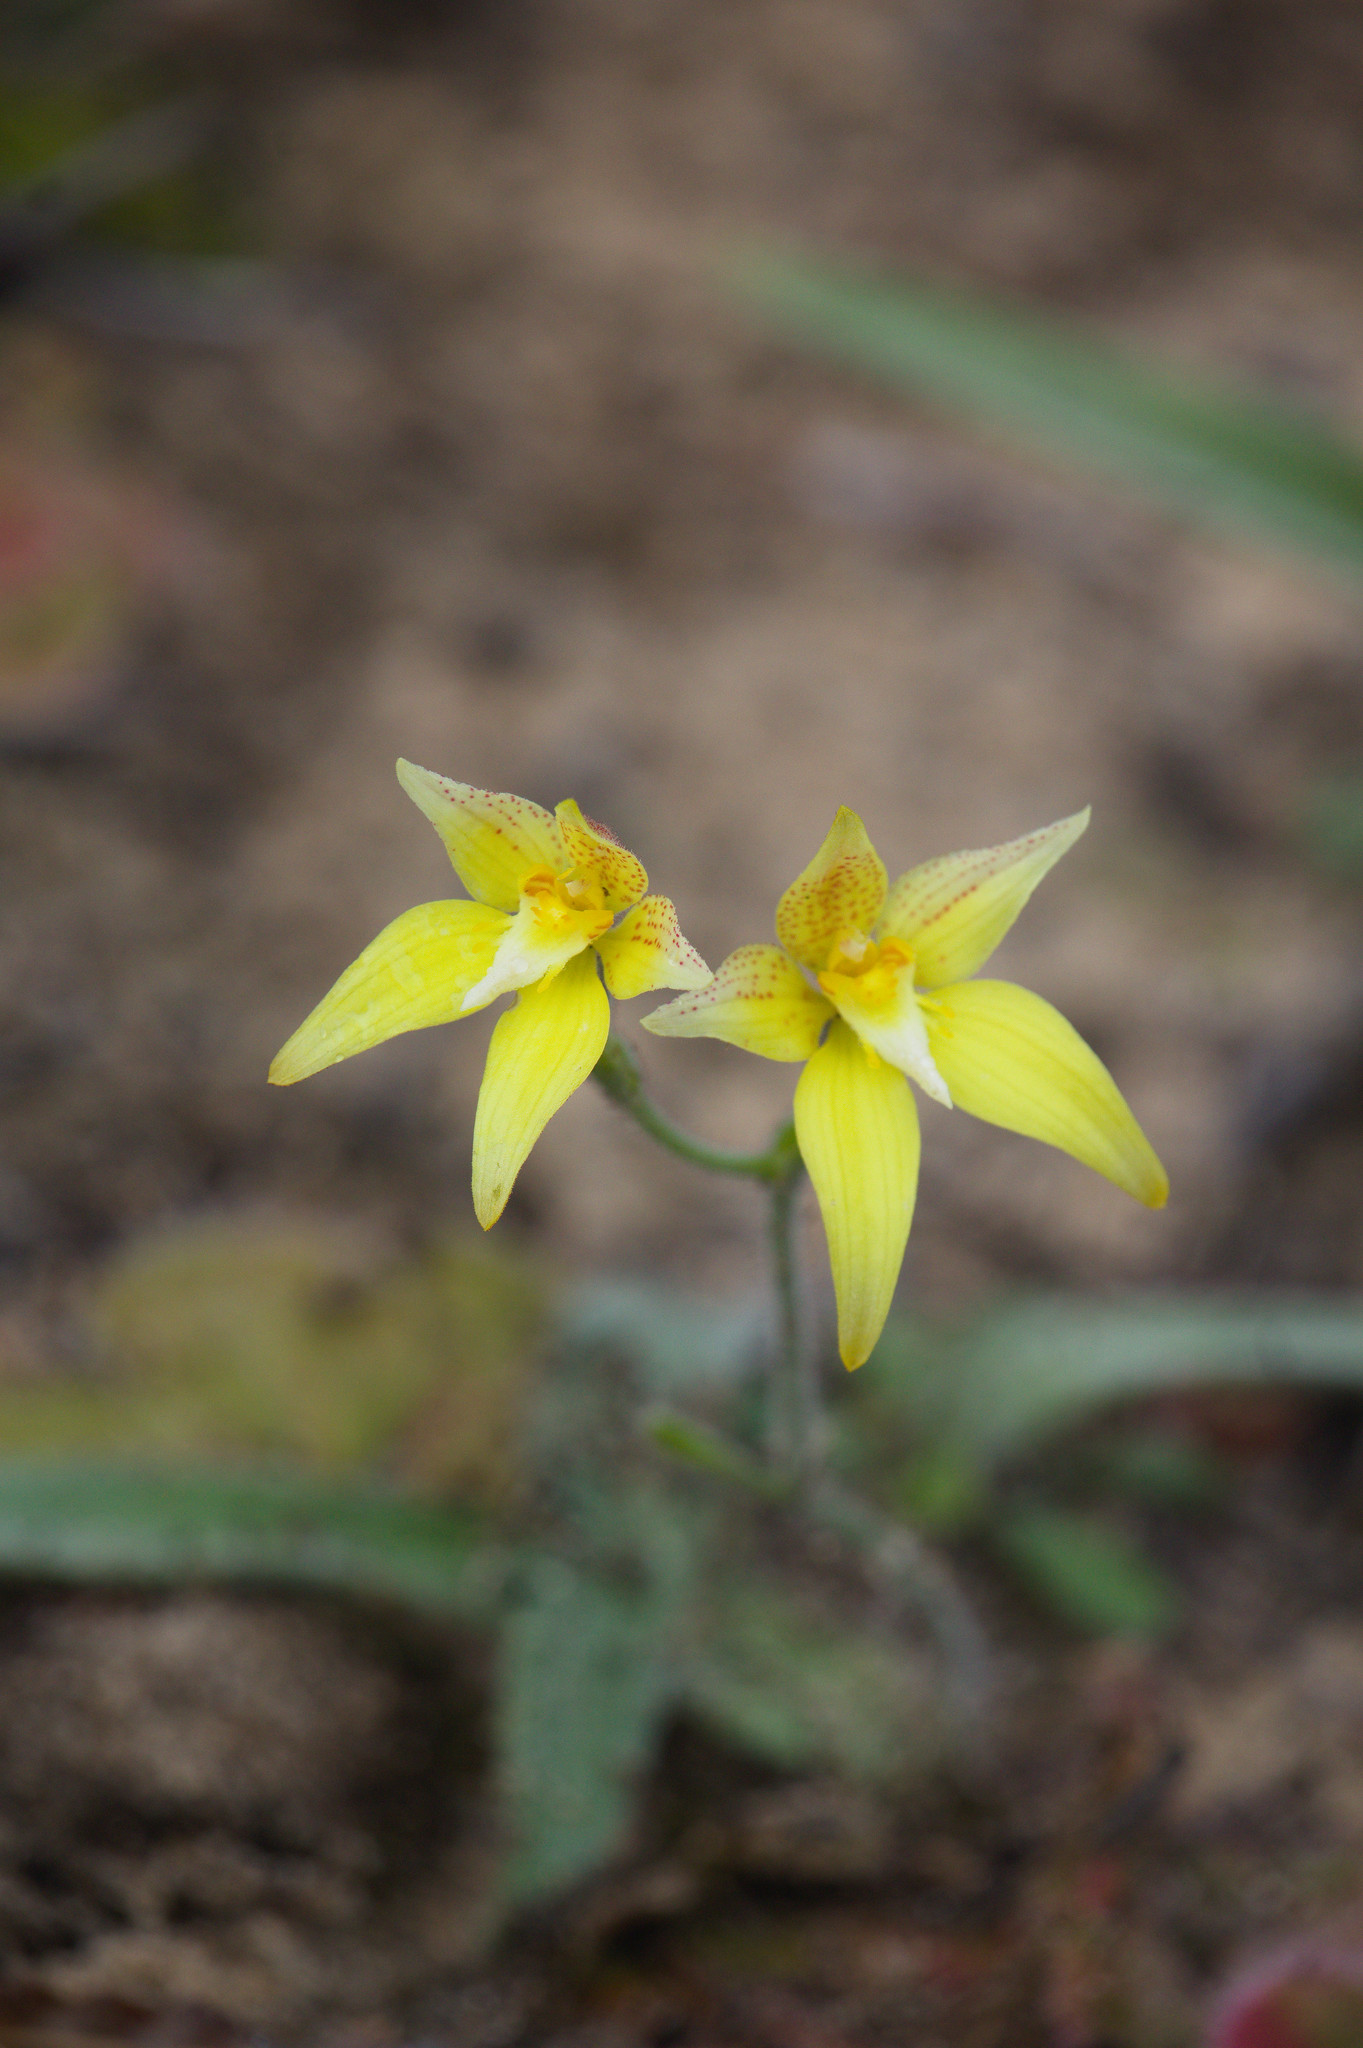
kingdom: Plantae
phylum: Tracheophyta
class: Liliopsida
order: Asparagales
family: Orchidaceae
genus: Caladenia
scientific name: Caladenia flava
